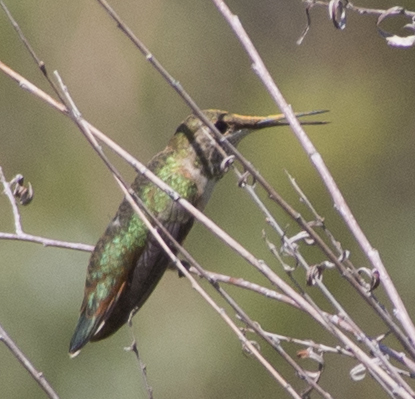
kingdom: Animalia
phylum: Chordata
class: Aves
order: Apodiformes
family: Trochilidae
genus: Selasphorus
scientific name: Selasphorus platycercus
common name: Broad-tailed hummingbird
